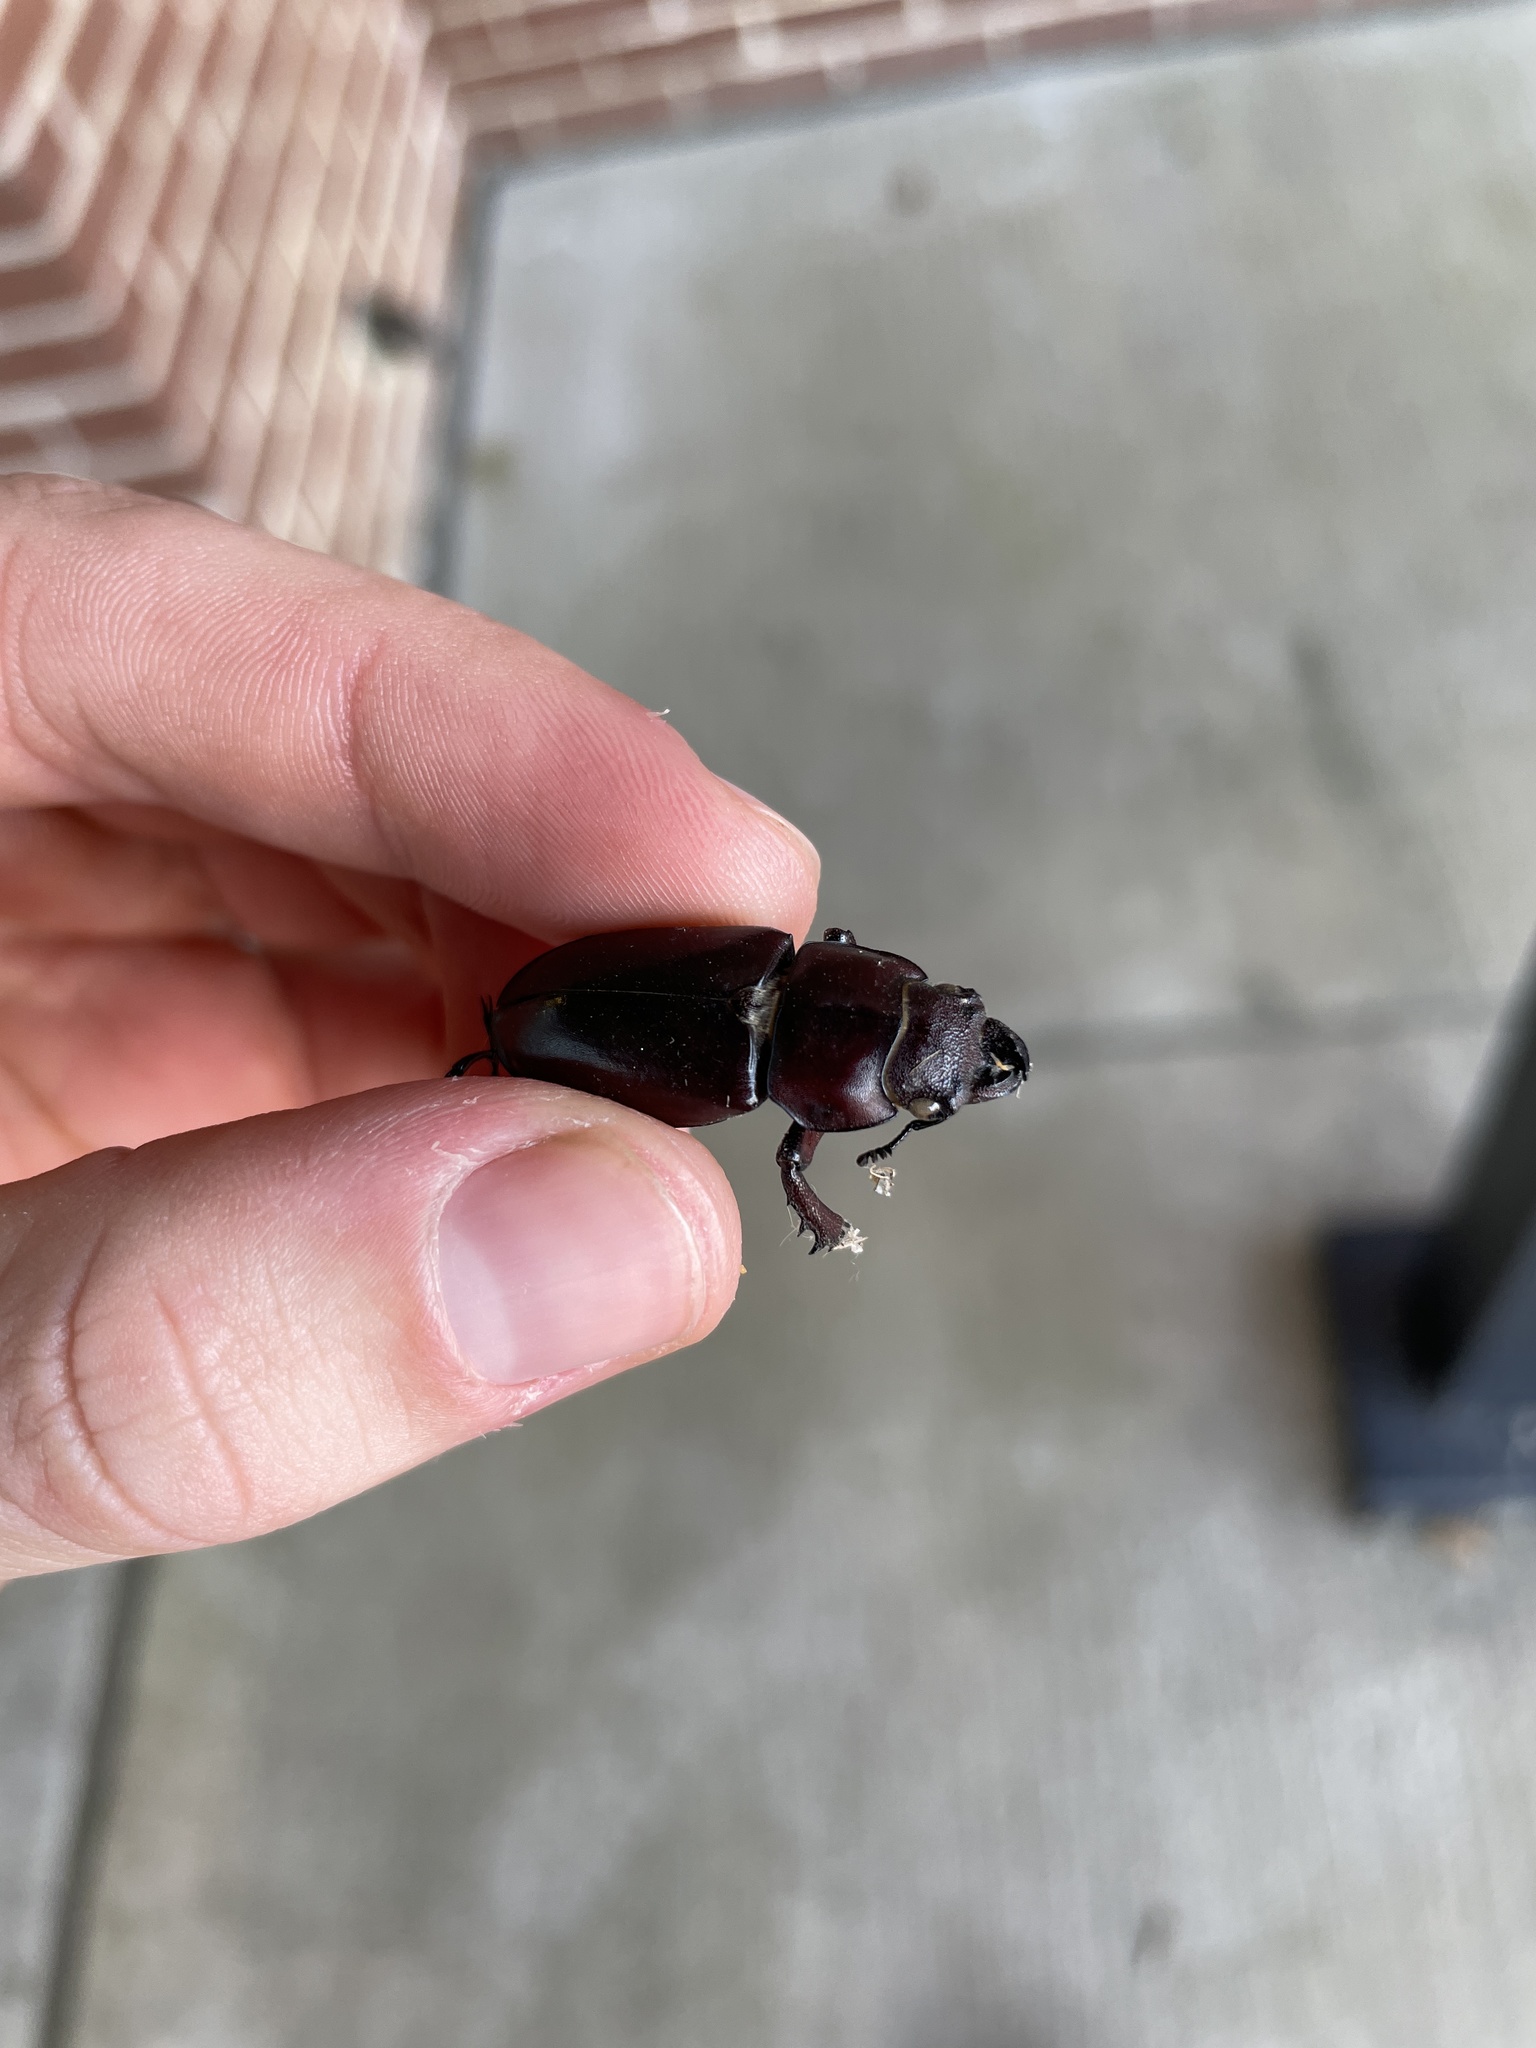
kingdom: Animalia
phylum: Arthropoda
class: Insecta
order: Coleoptera
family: Lucanidae
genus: Lucanus
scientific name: Lucanus capreolus
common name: Stag beetle
